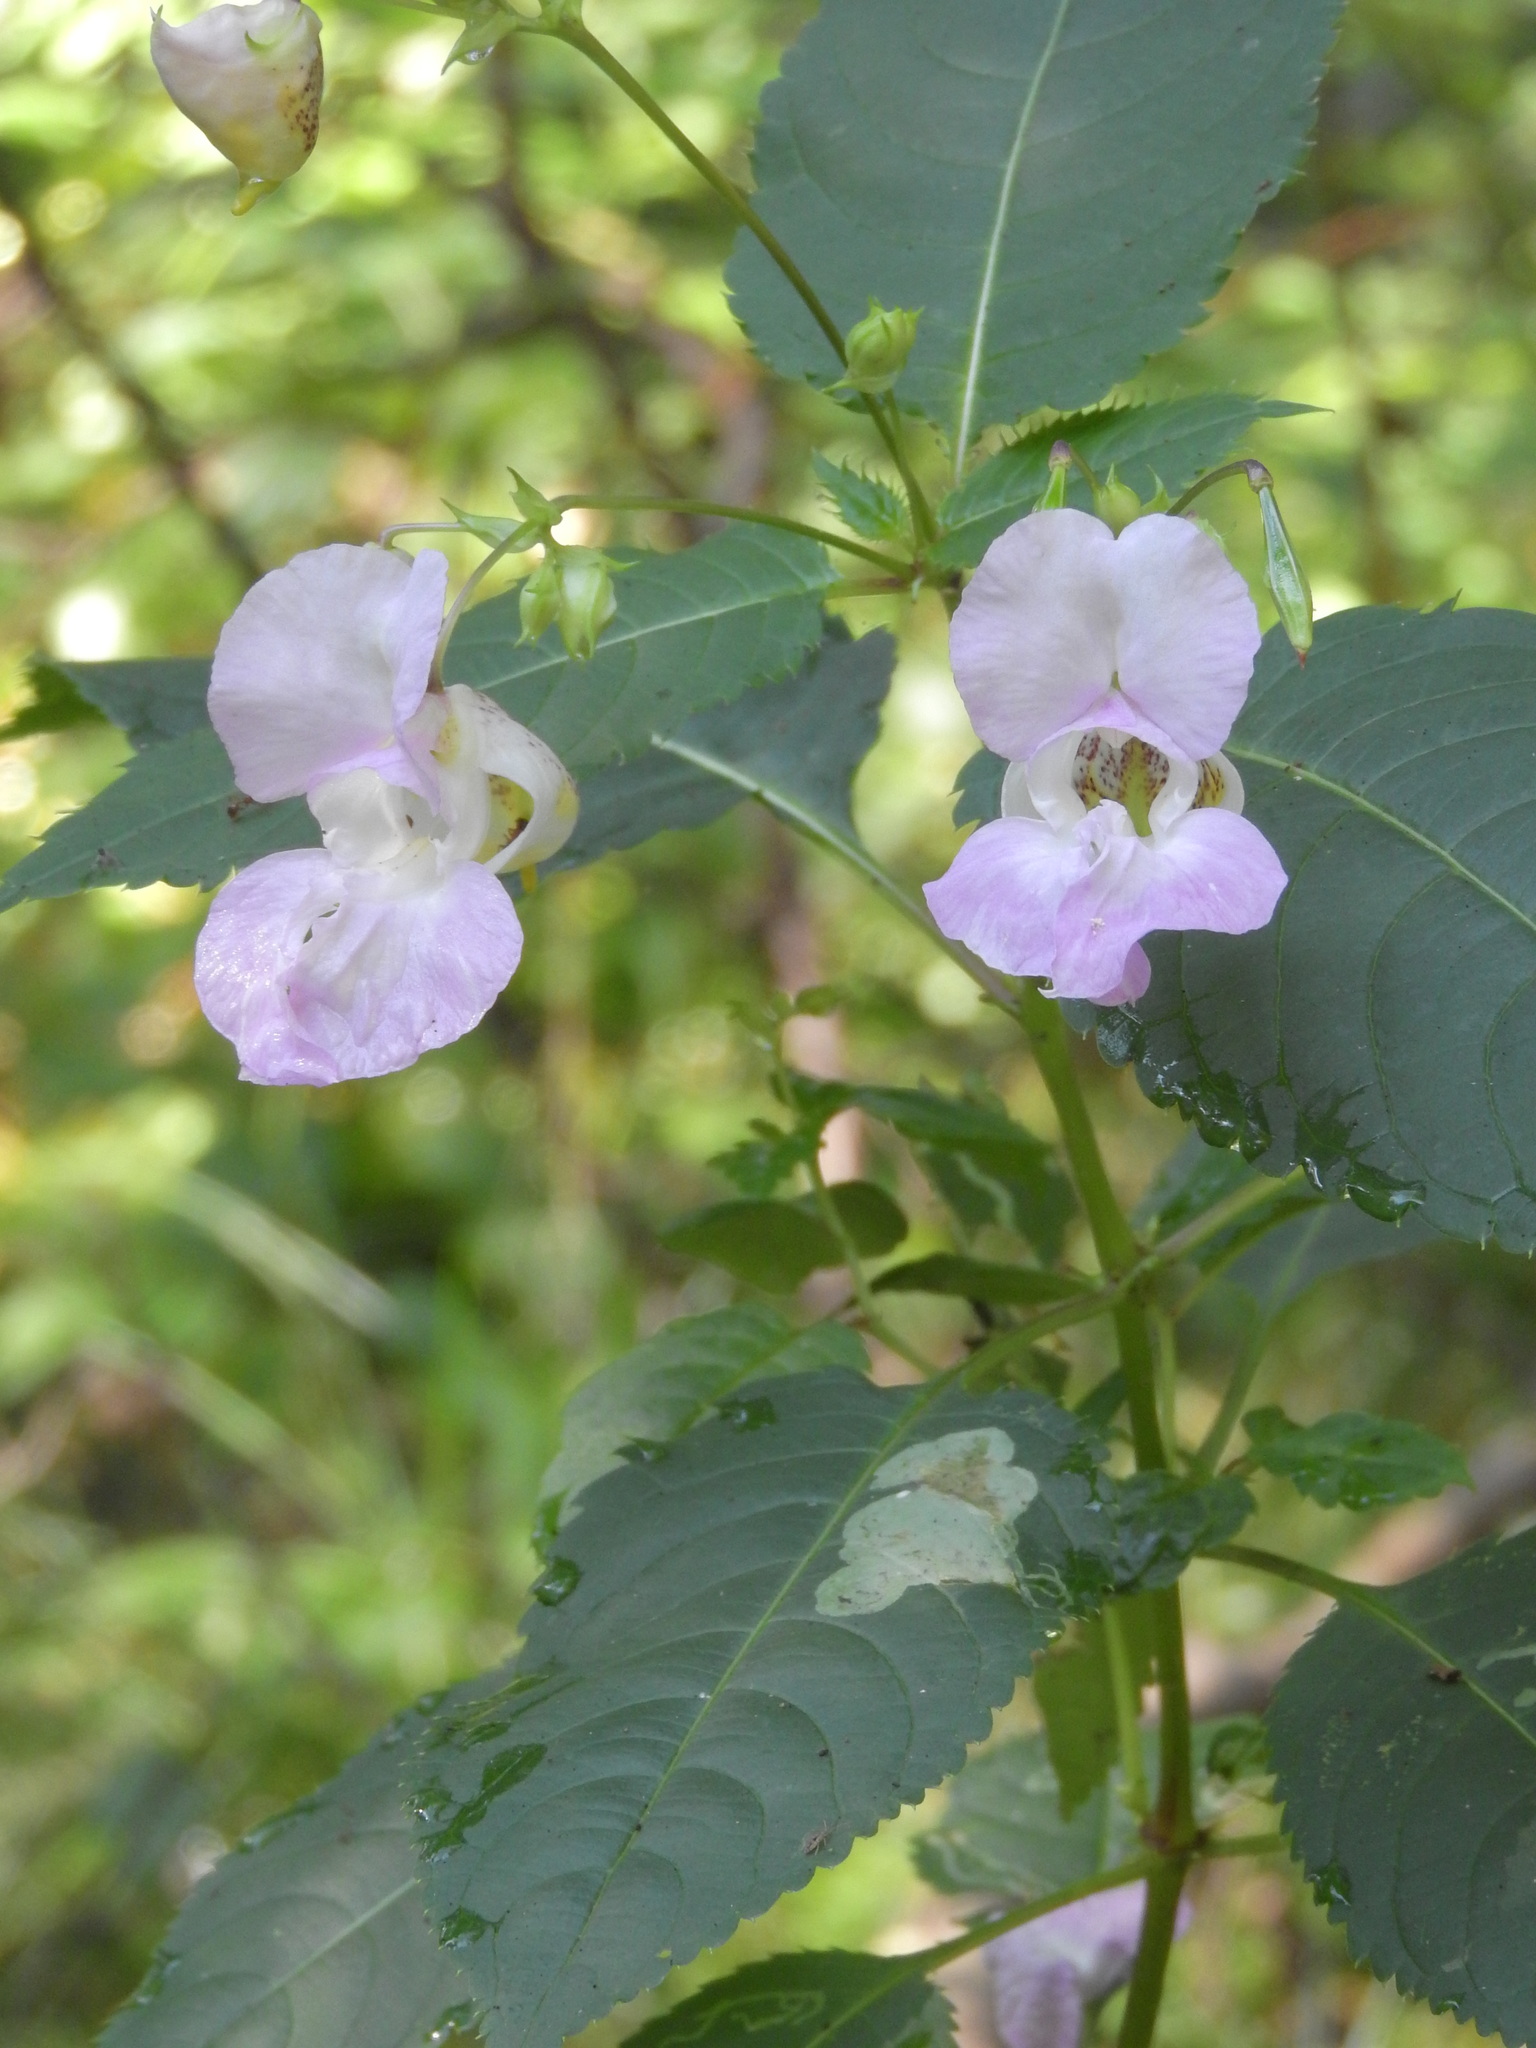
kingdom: Plantae
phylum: Tracheophyta
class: Magnoliopsida
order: Ericales
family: Balsaminaceae
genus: Impatiens
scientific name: Impatiens glandulifera
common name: Himalayan balsam
